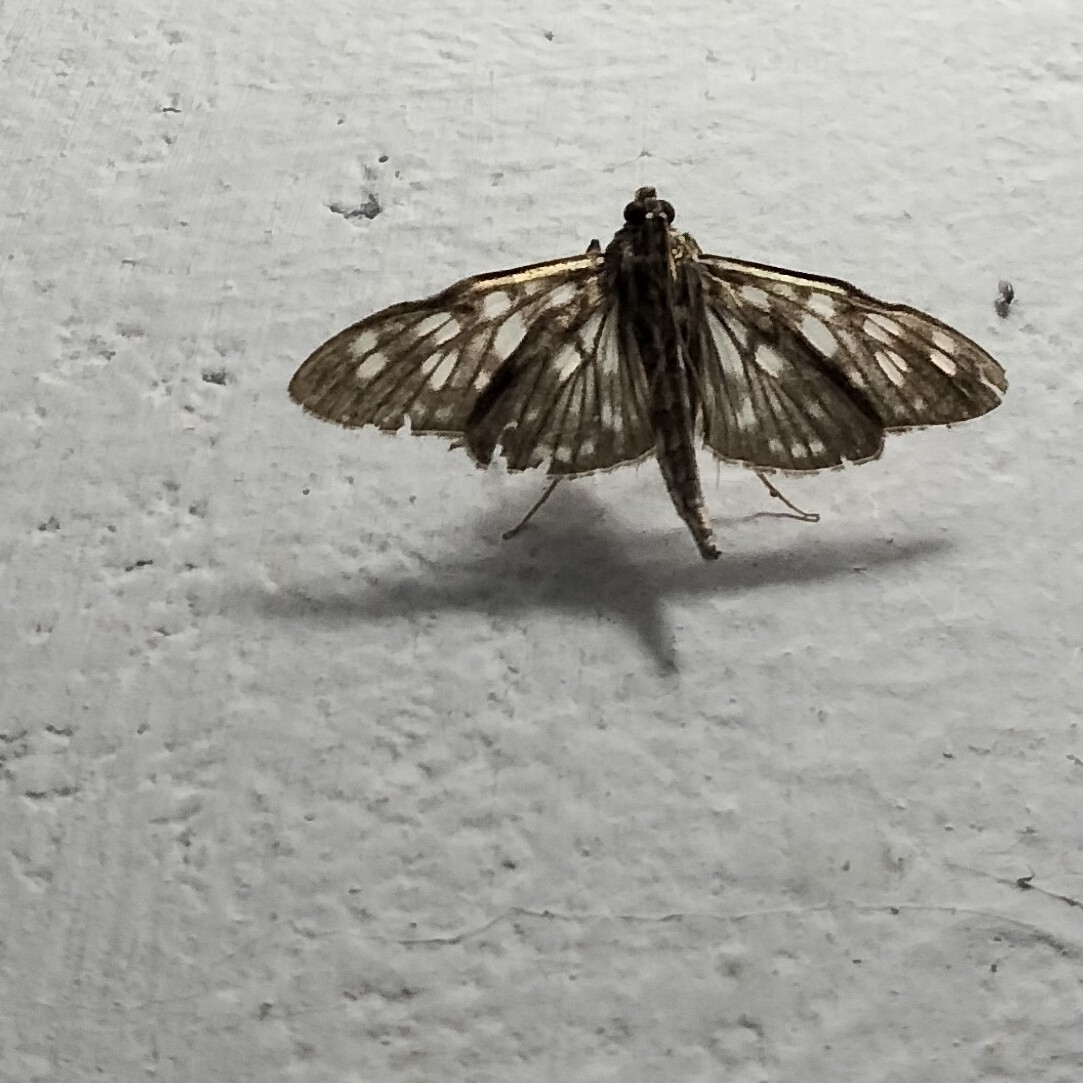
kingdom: Animalia
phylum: Arthropoda
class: Insecta
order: Lepidoptera
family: Crambidae
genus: Pygospila
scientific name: Pygospila costiflexalis
